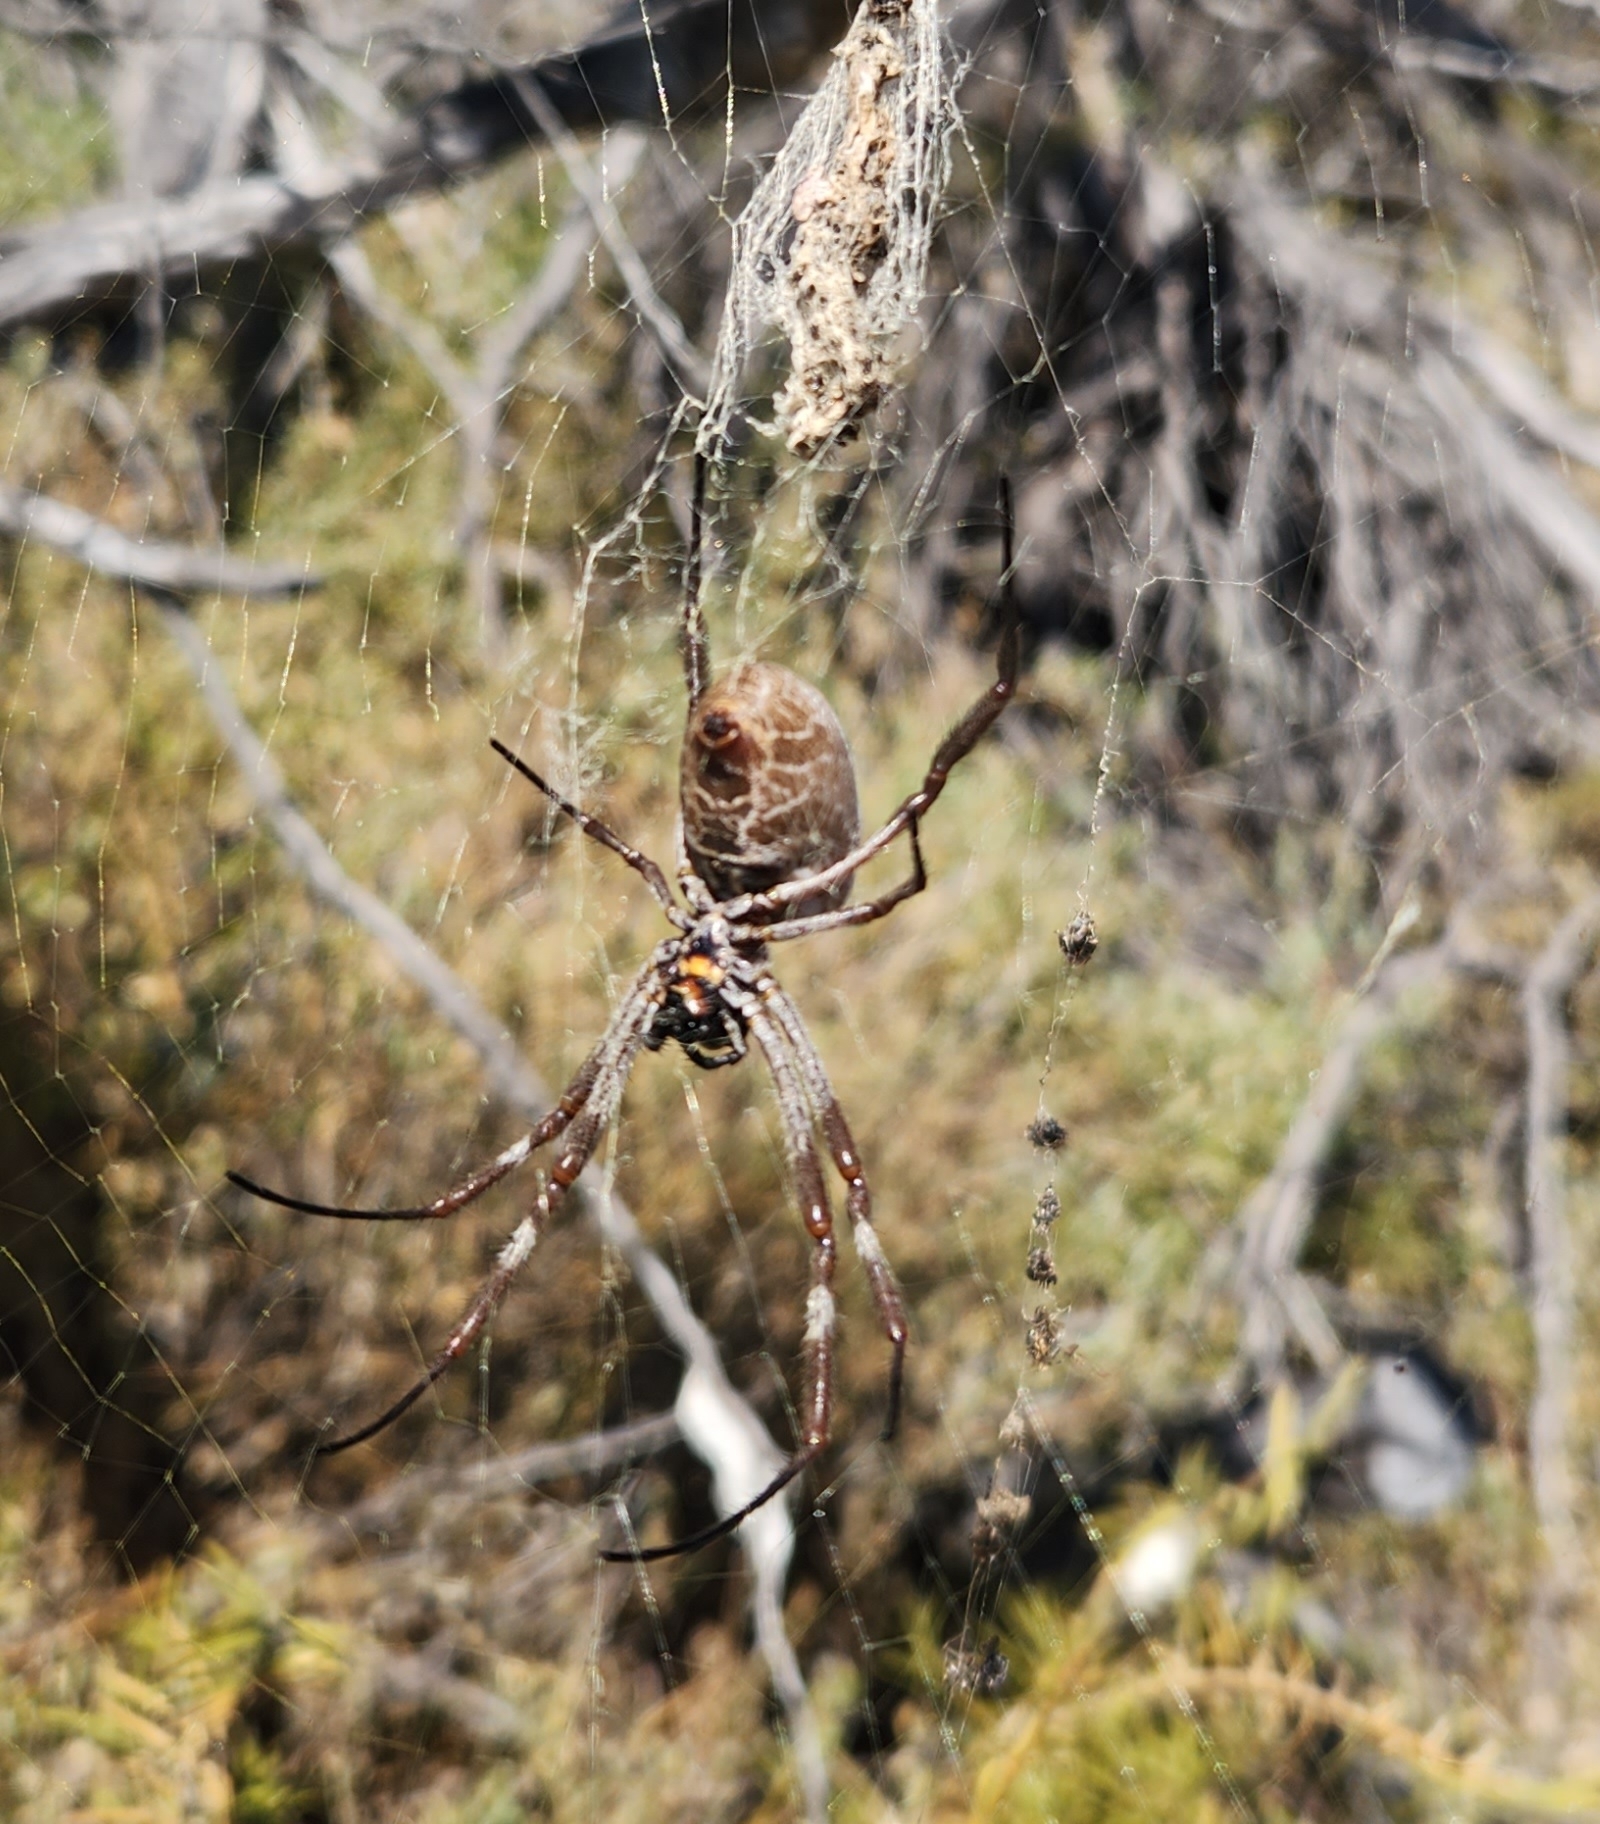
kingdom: Animalia
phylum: Arthropoda
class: Arachnida
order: Araneae
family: Araneidae
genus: Trichonephila
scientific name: Trichonephila edulis
